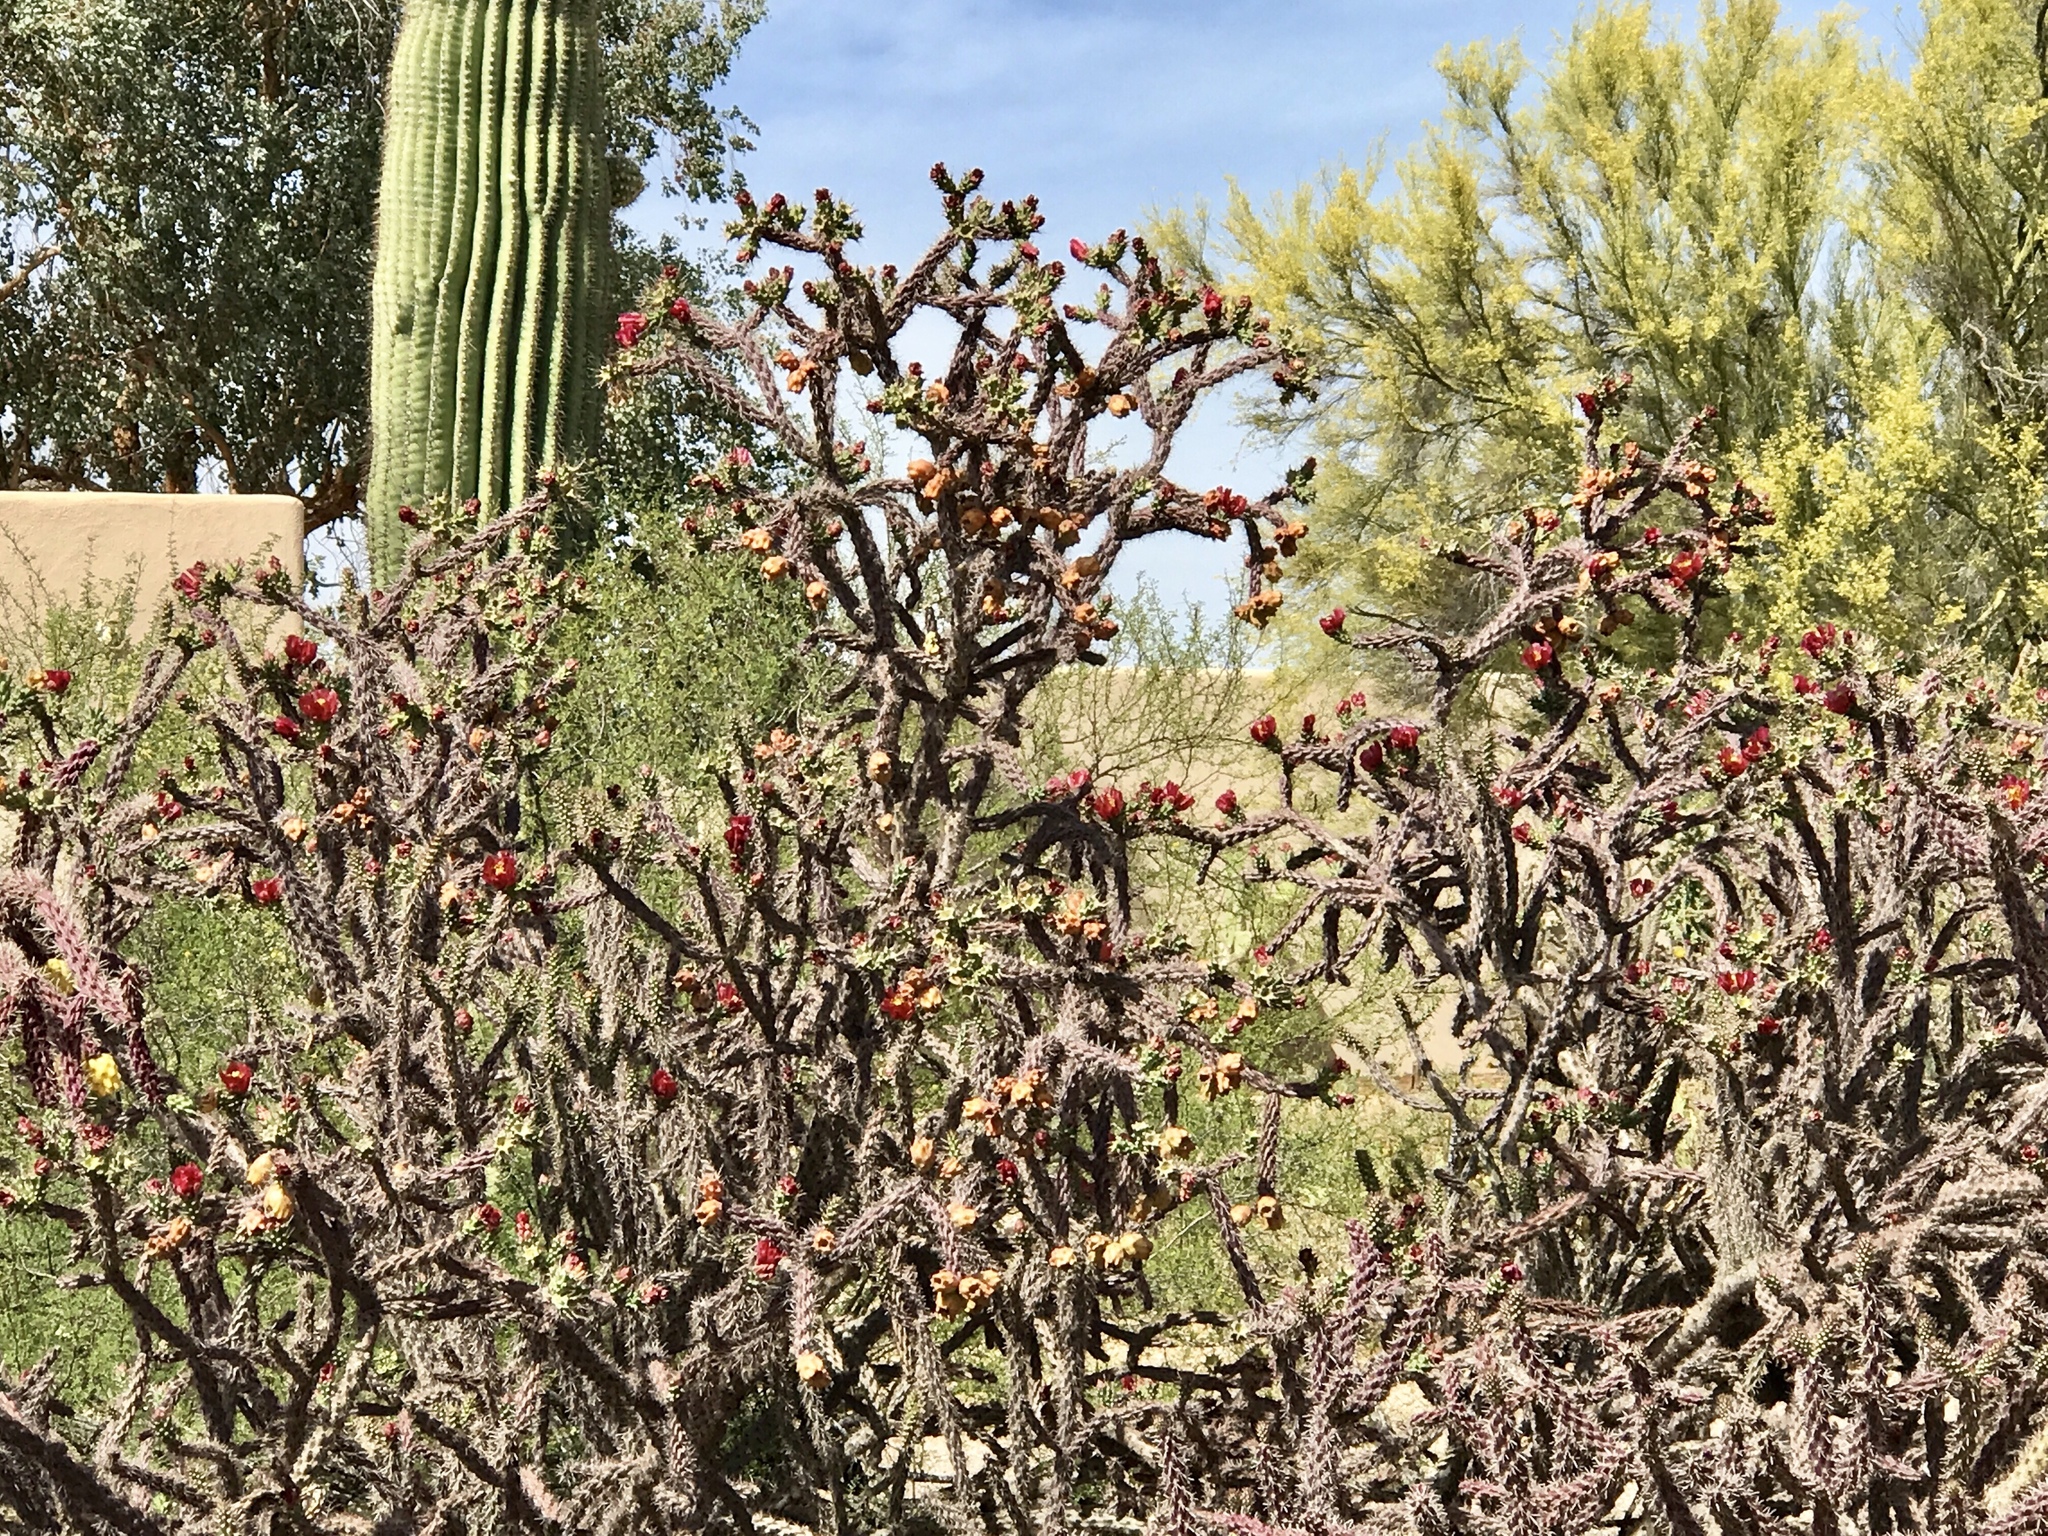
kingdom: Plantae
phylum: Tracheophyta
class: Magnoliopsida
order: Caryophyllales
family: Cactaceae
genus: Cylindropuntia
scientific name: Cylindropuntia thurberi
